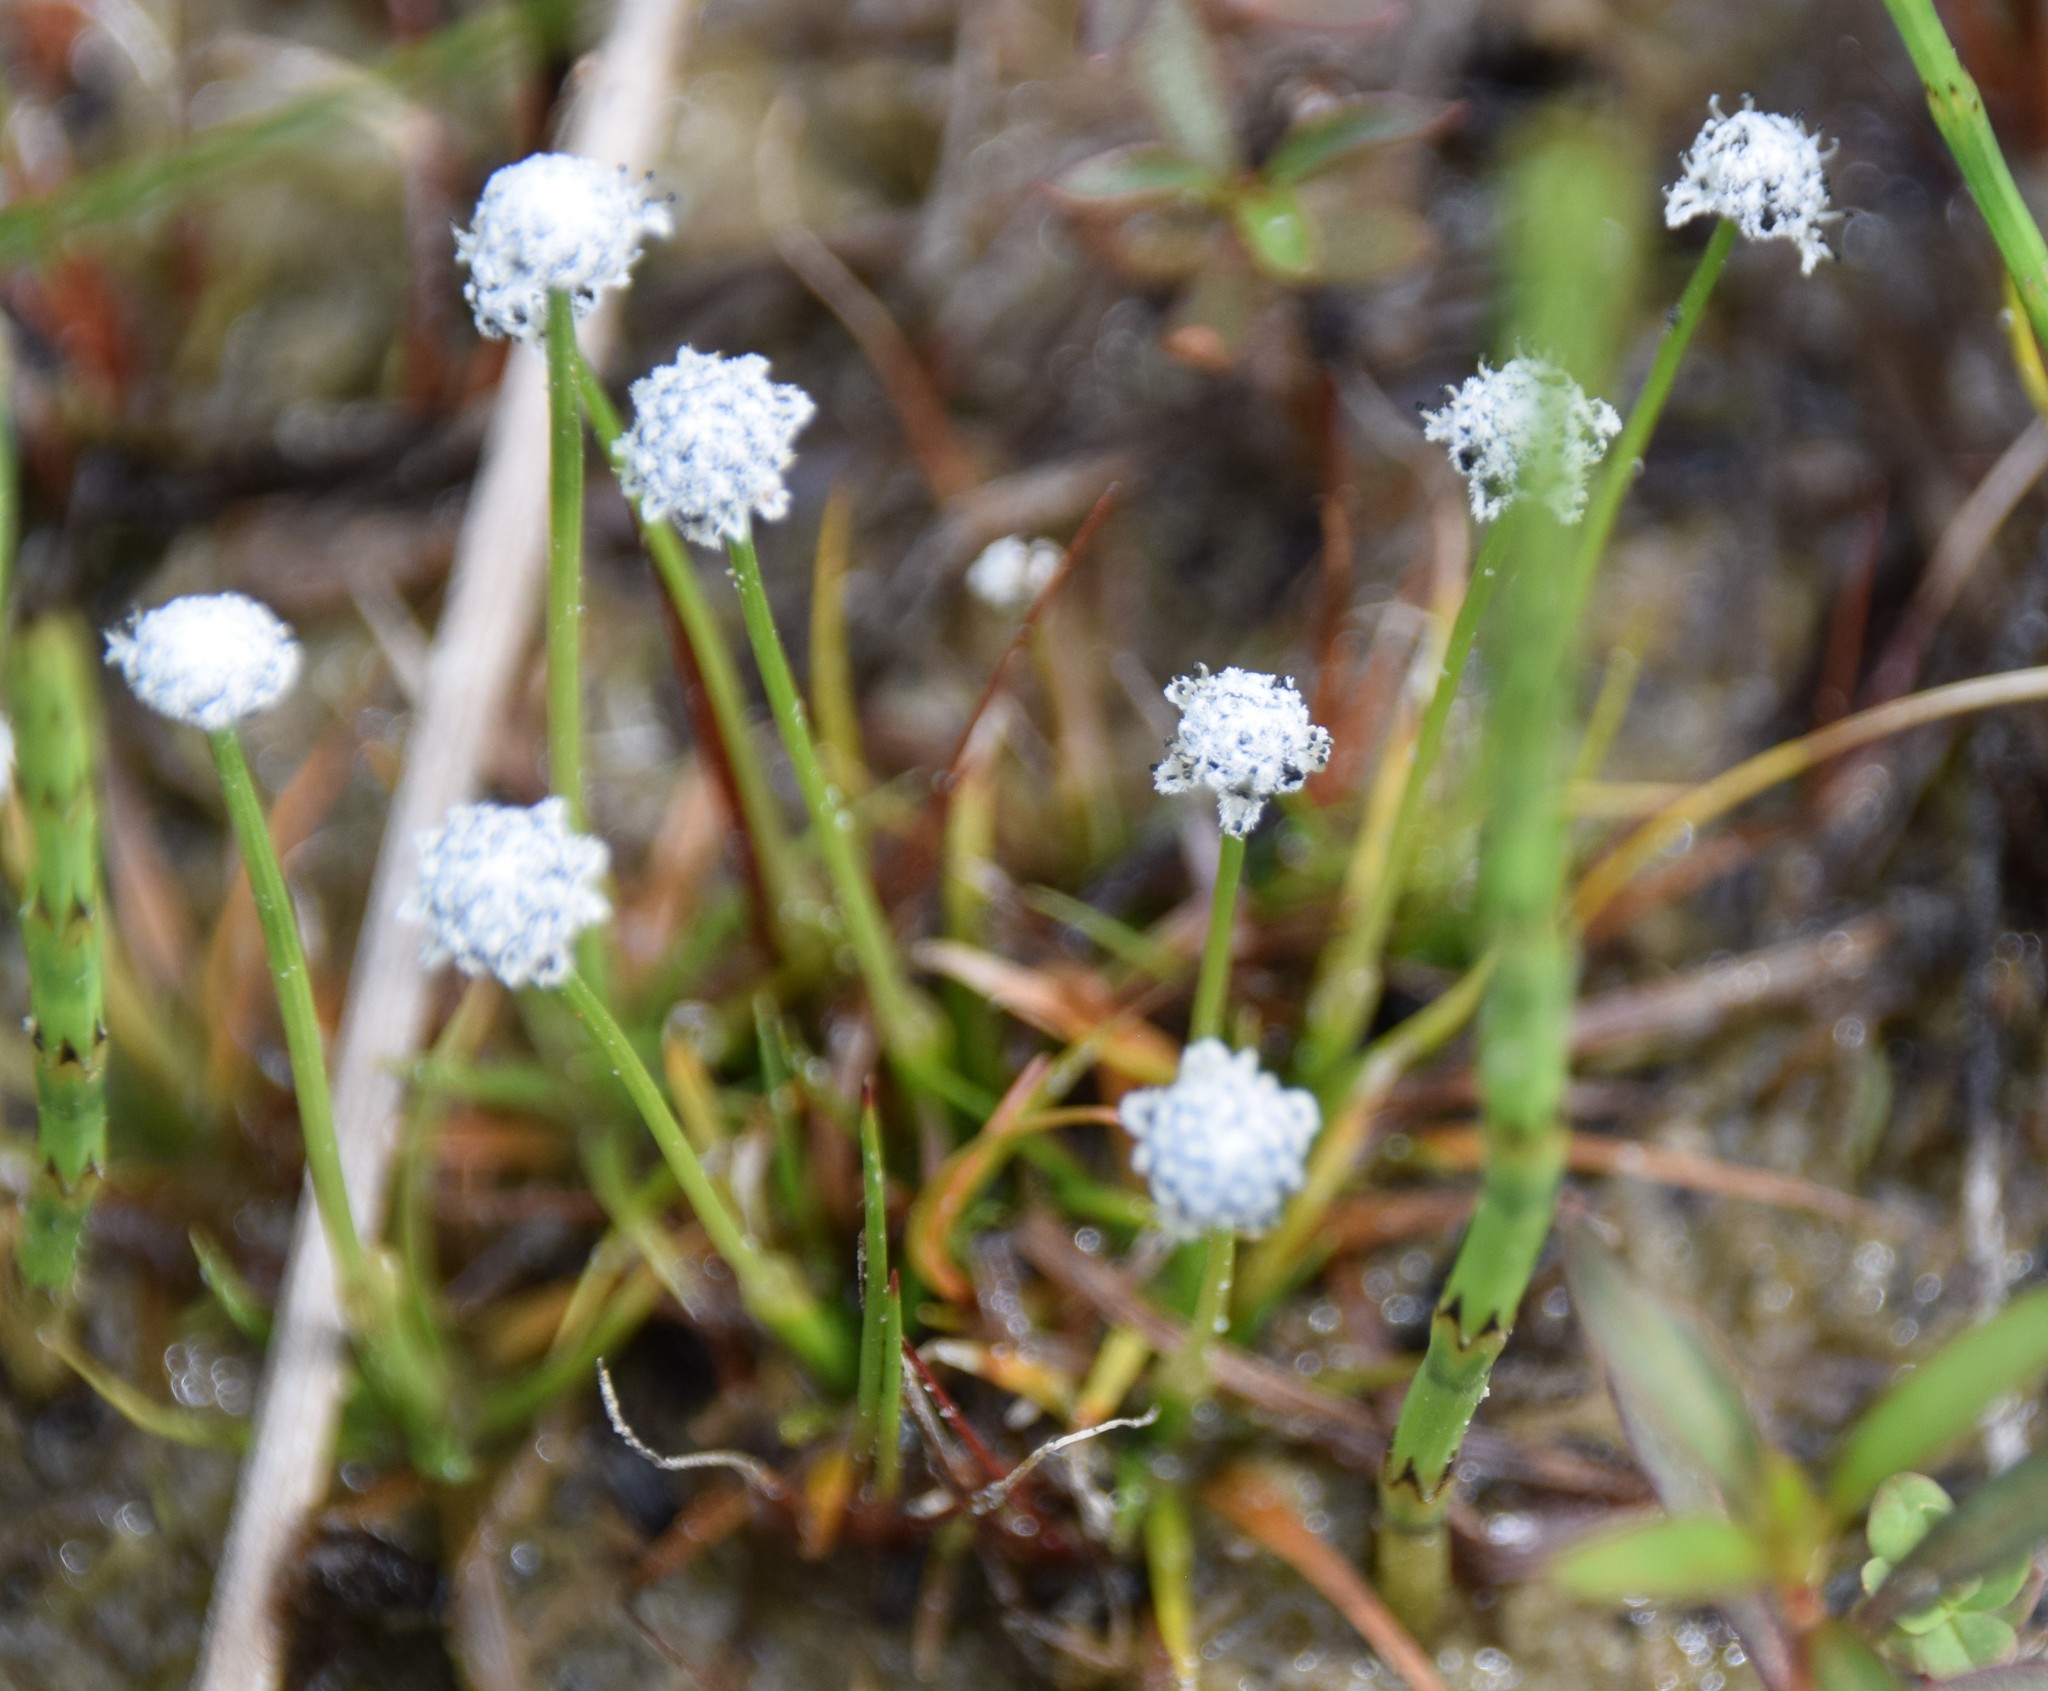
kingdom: Plantae
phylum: Tracheophyta
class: Liliopsida
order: Poales
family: Eriocaulaceae
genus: Eriocaulon
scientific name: Eriocaulon aquaticum
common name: Pipewort
